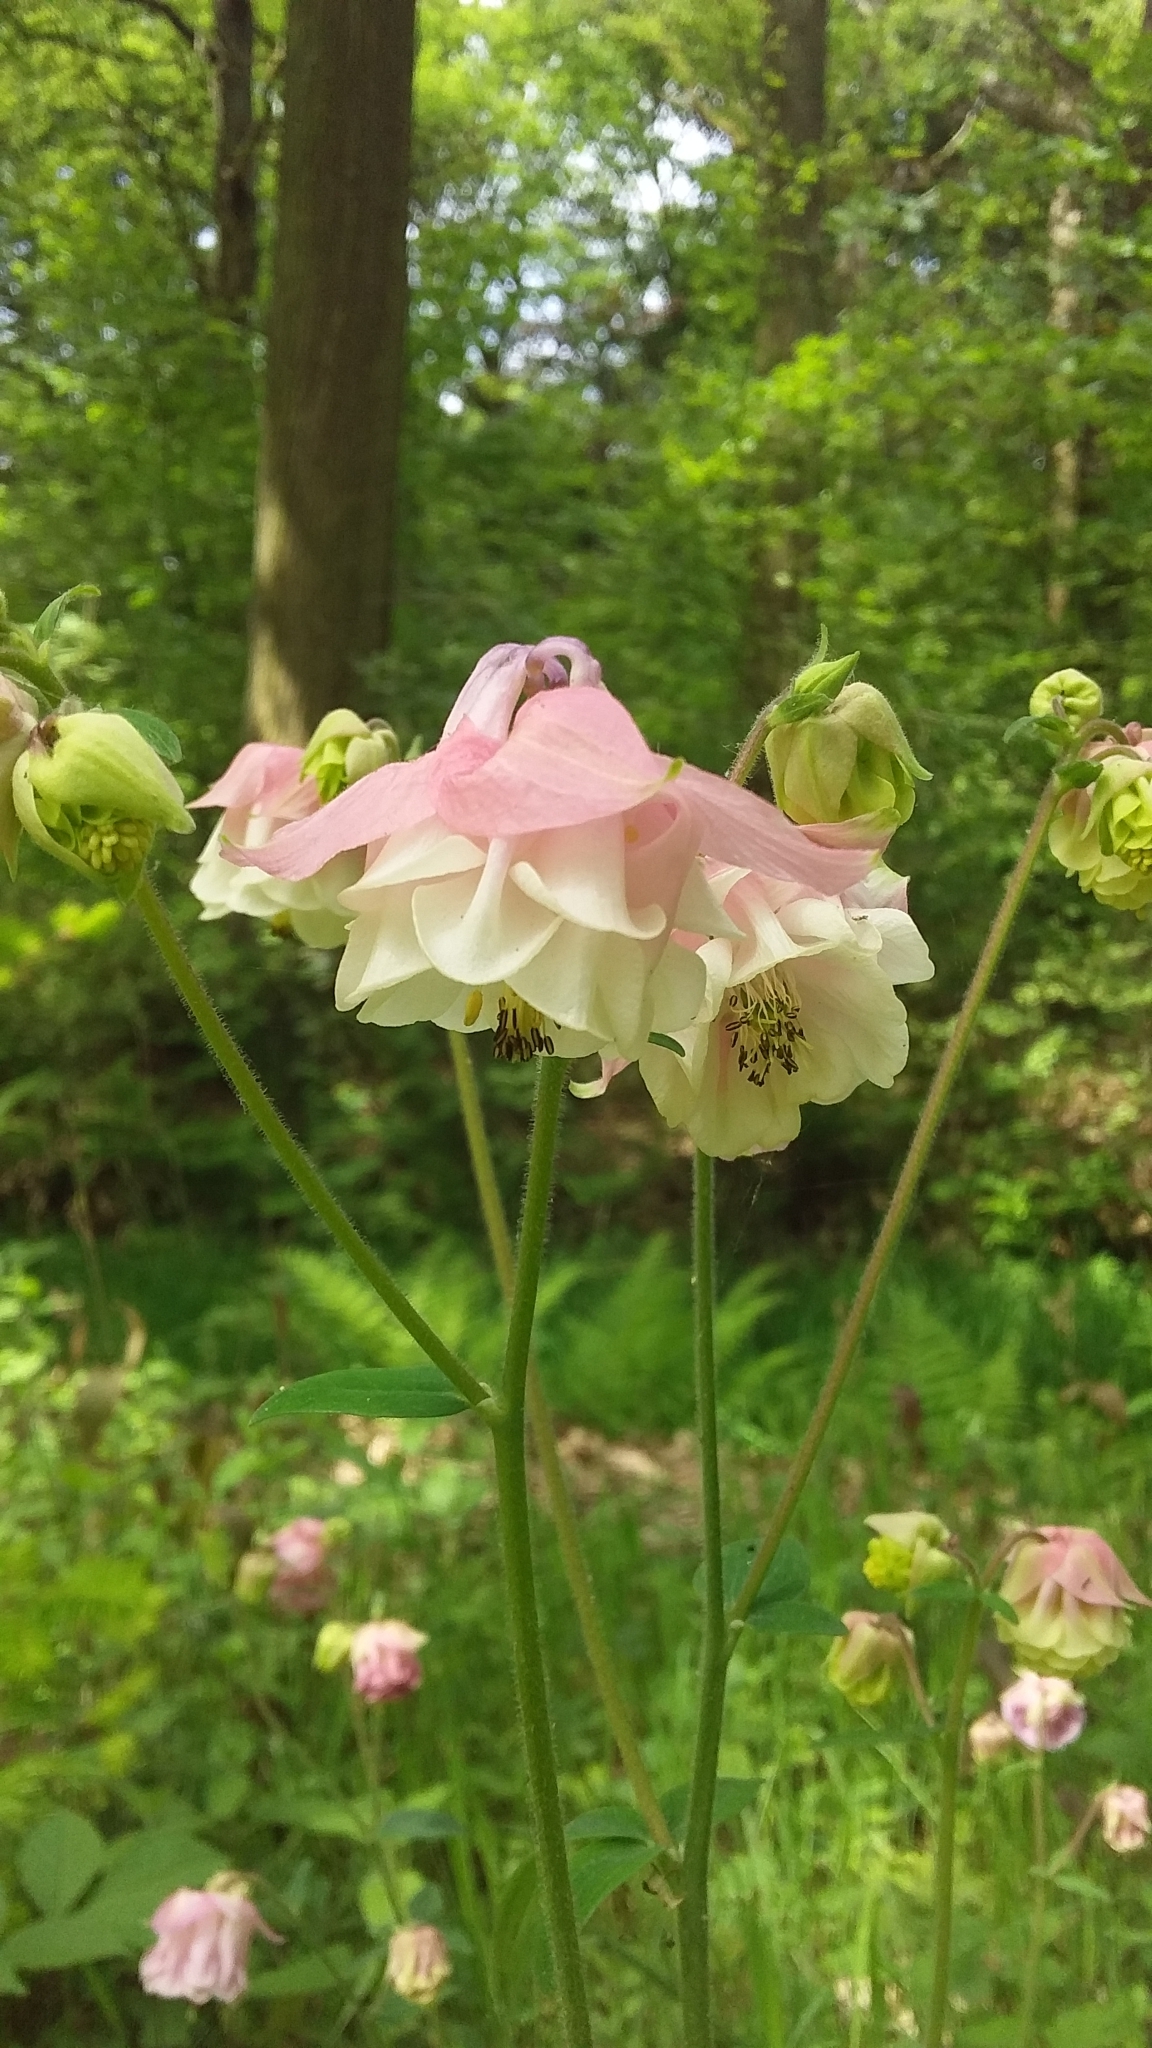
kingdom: Plantae
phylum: Tracheophyta
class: Magnoliopsida
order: Ranunculales
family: Ranunculaceae
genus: Aquilegia
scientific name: Aquilegia vulgaris
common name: Columbine
